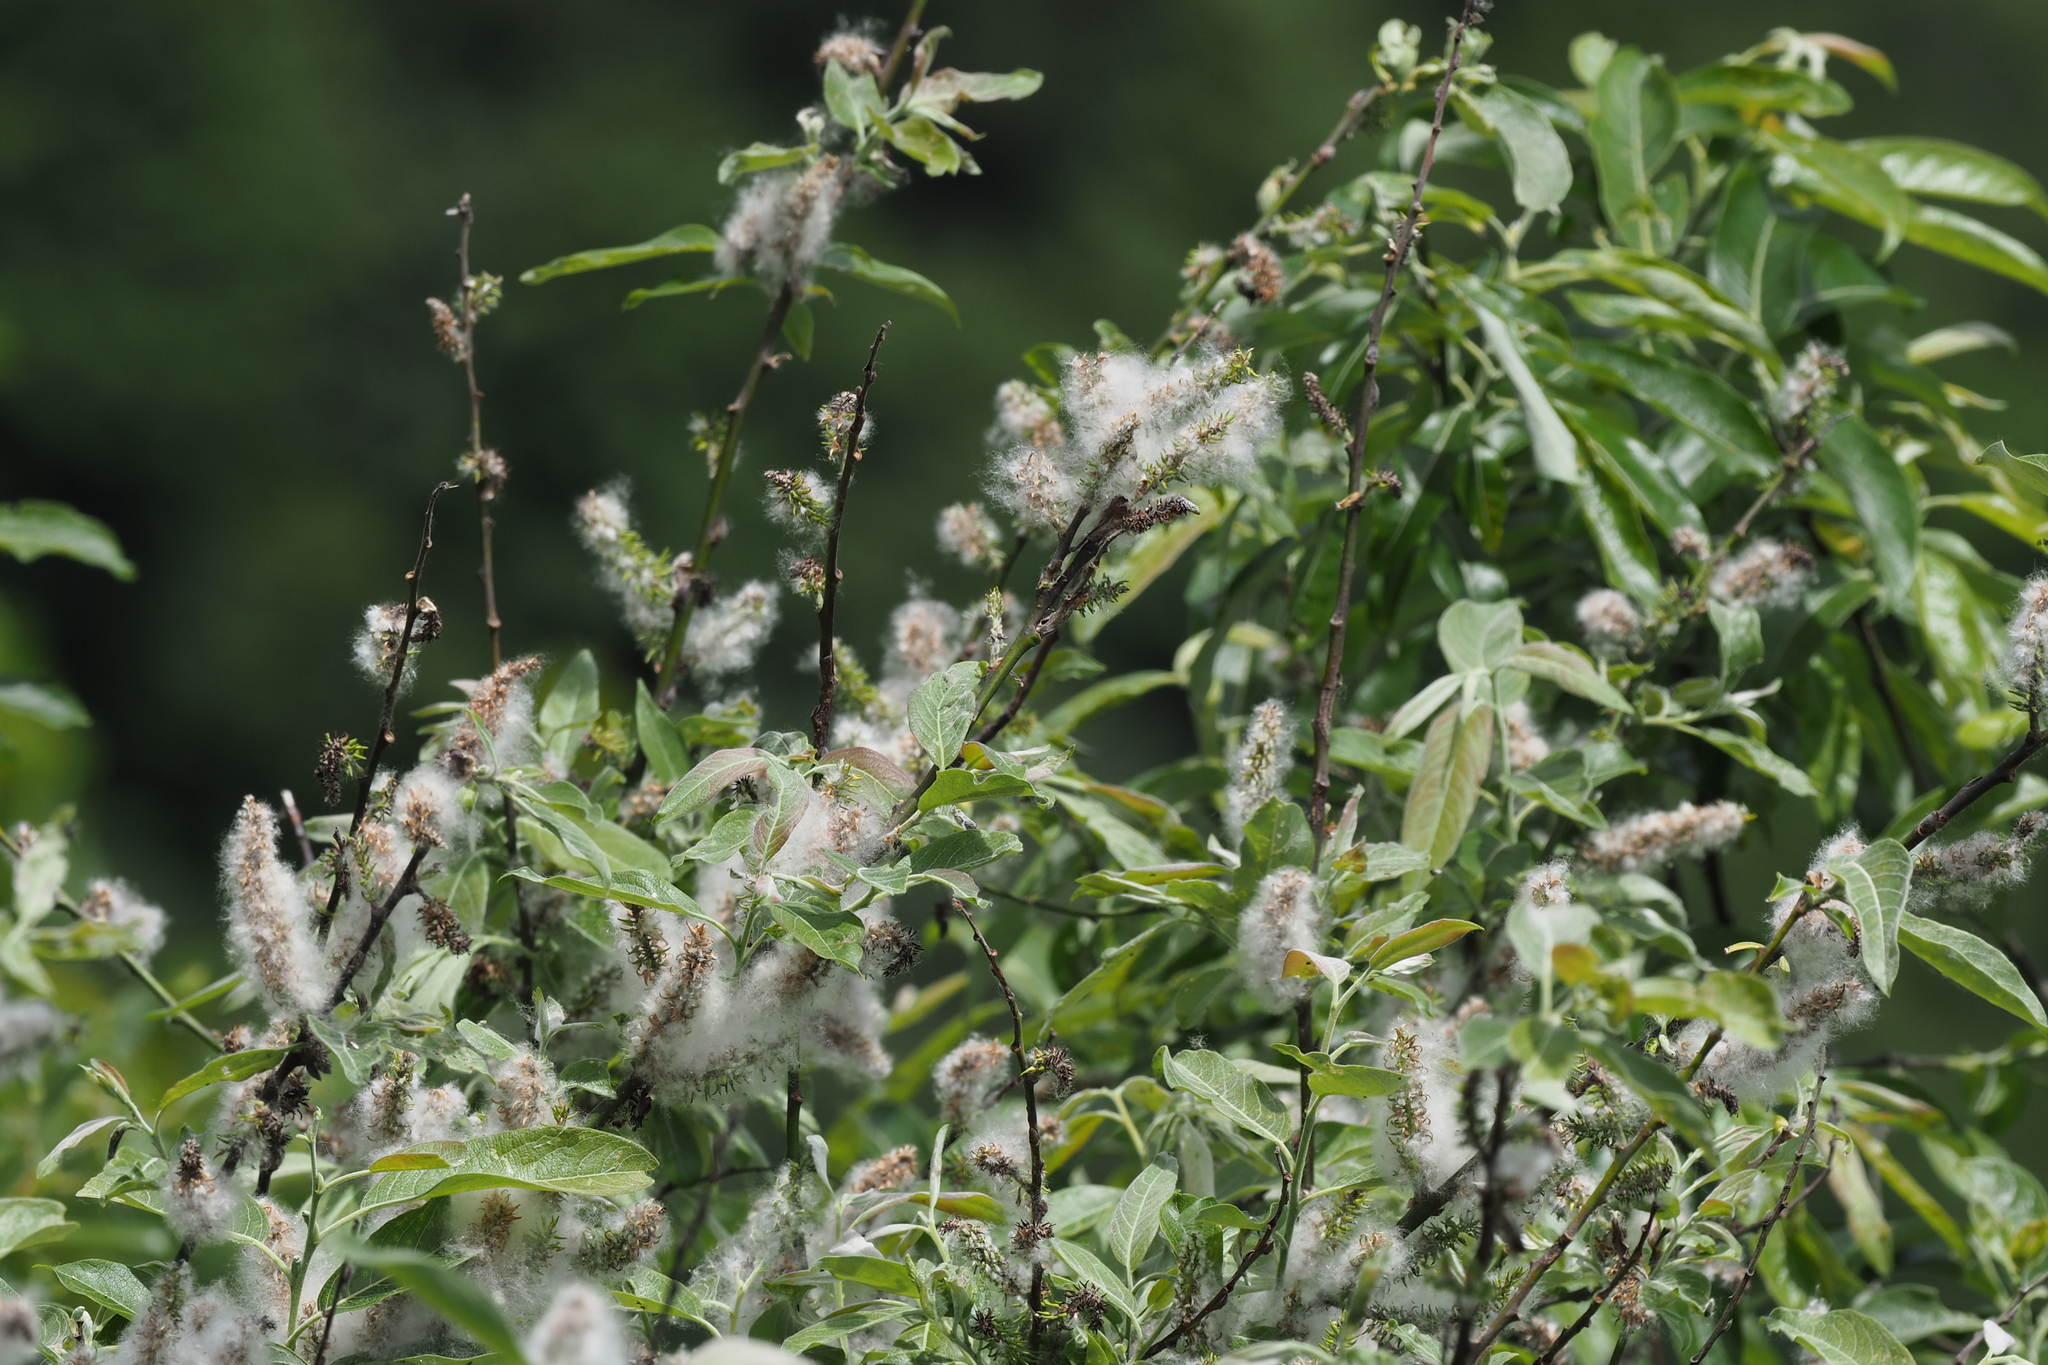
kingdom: Plantae
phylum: Tracheophyta
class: Magnoliopsida
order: Malpighiales
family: Salicaceae
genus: Salix
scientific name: Salix fulvopubescens
